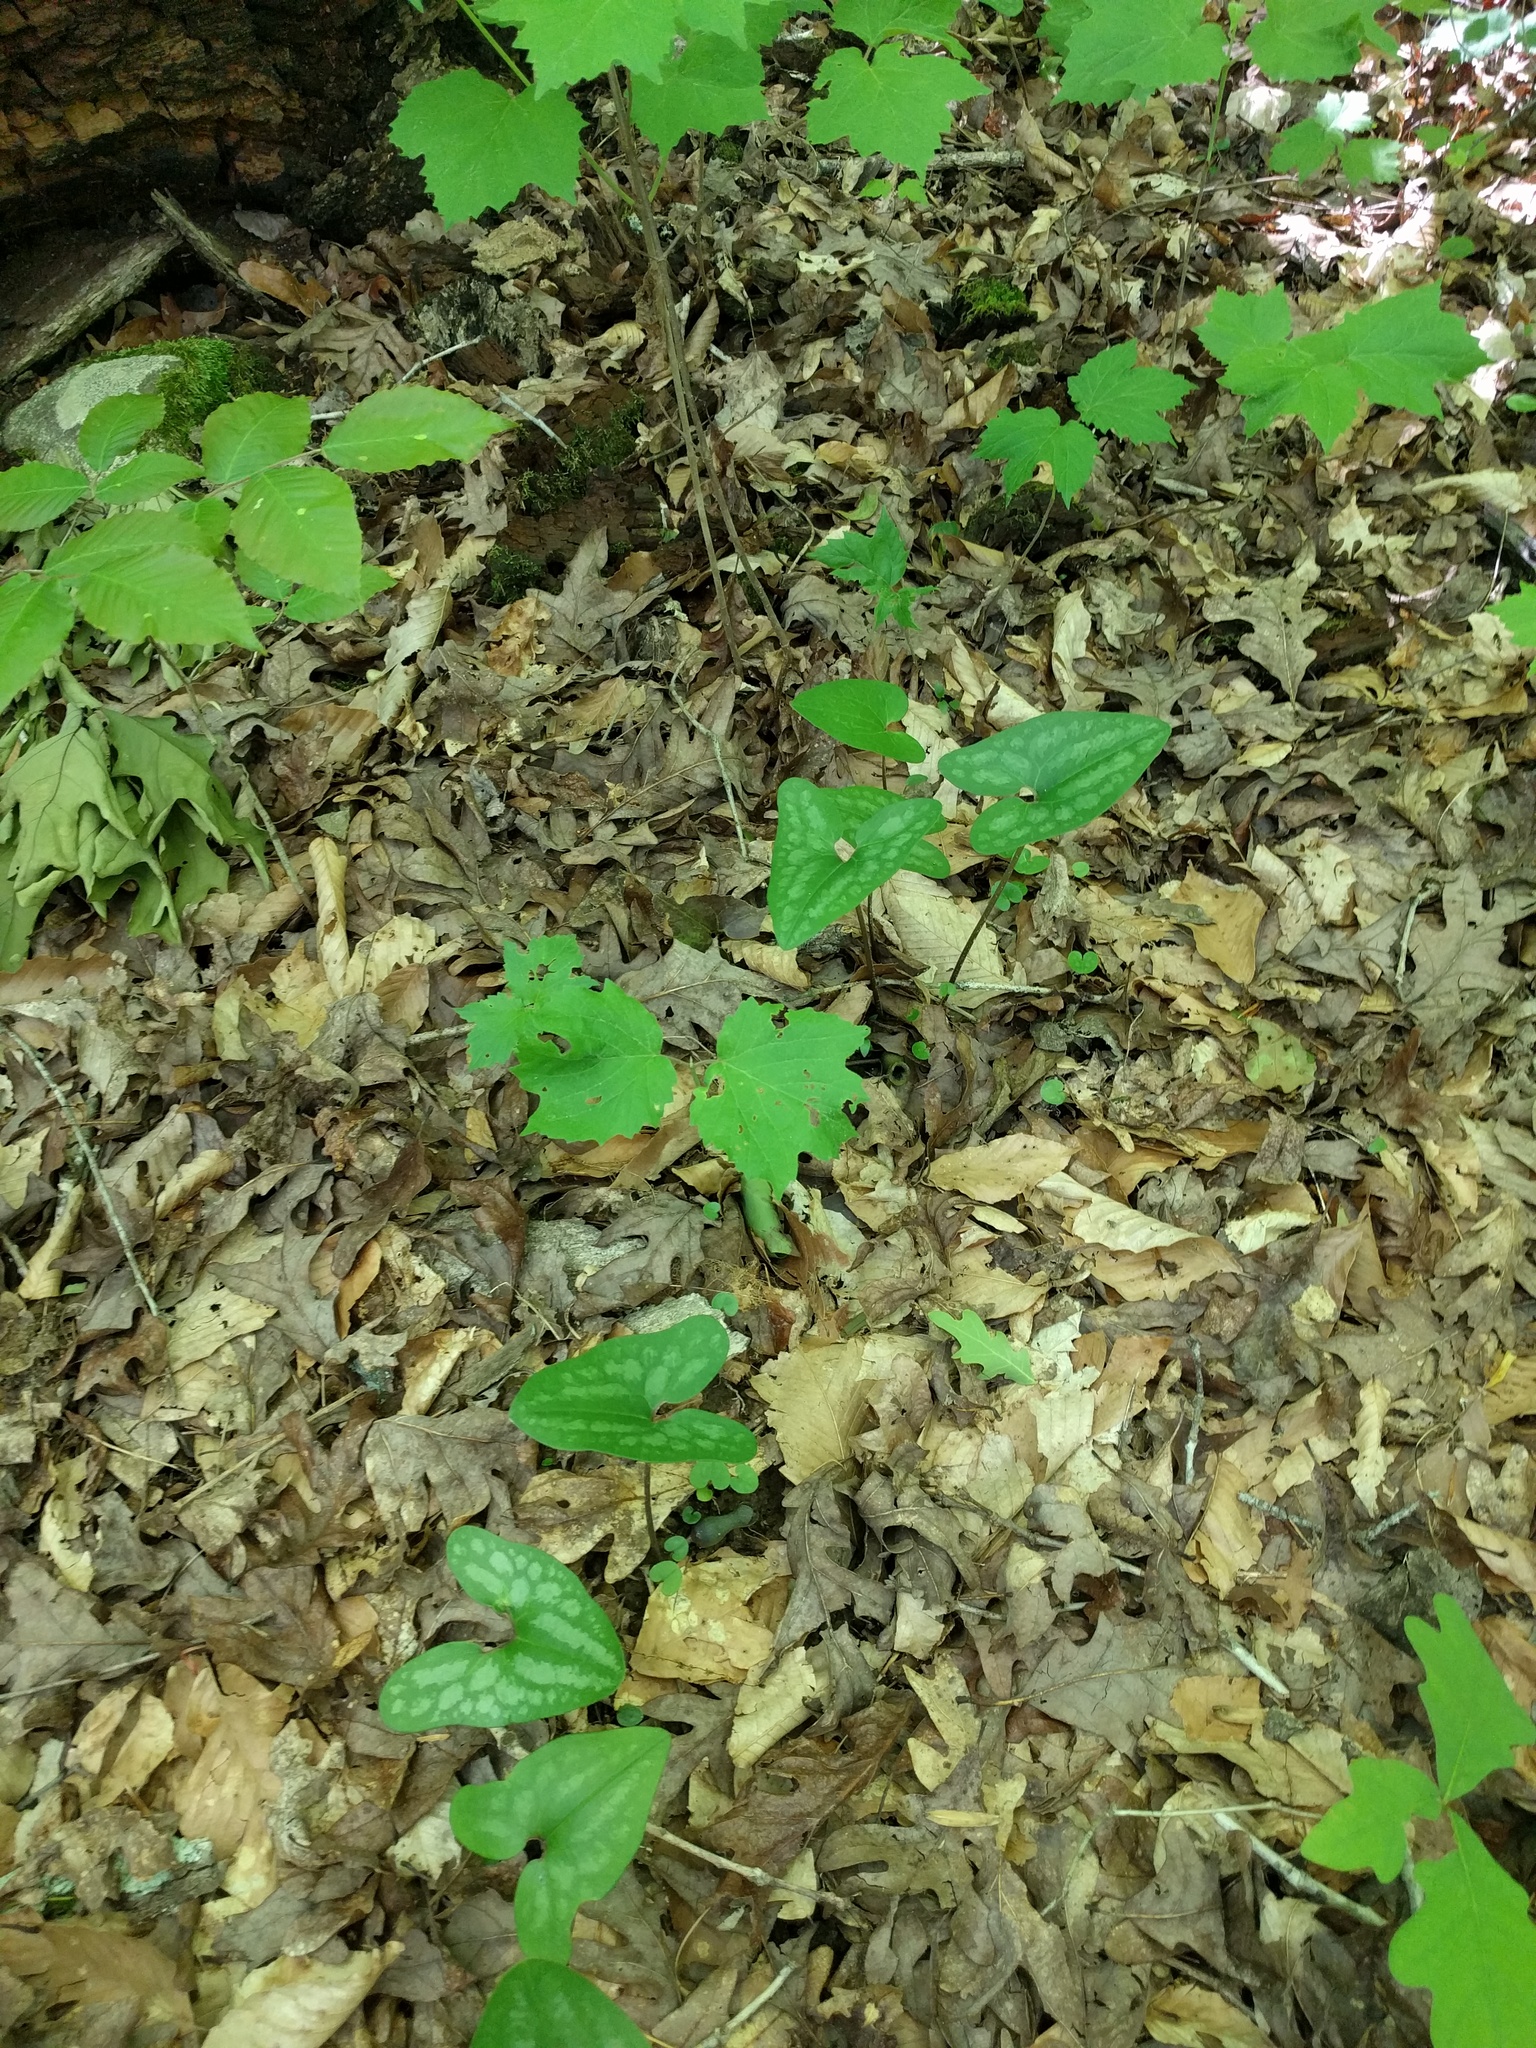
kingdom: Plantae
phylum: Tracheophyta
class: Magnoliopsida
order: Piperales
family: Aristolochiaceae
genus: Hexastylis
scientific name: Hexastylis arifolia
